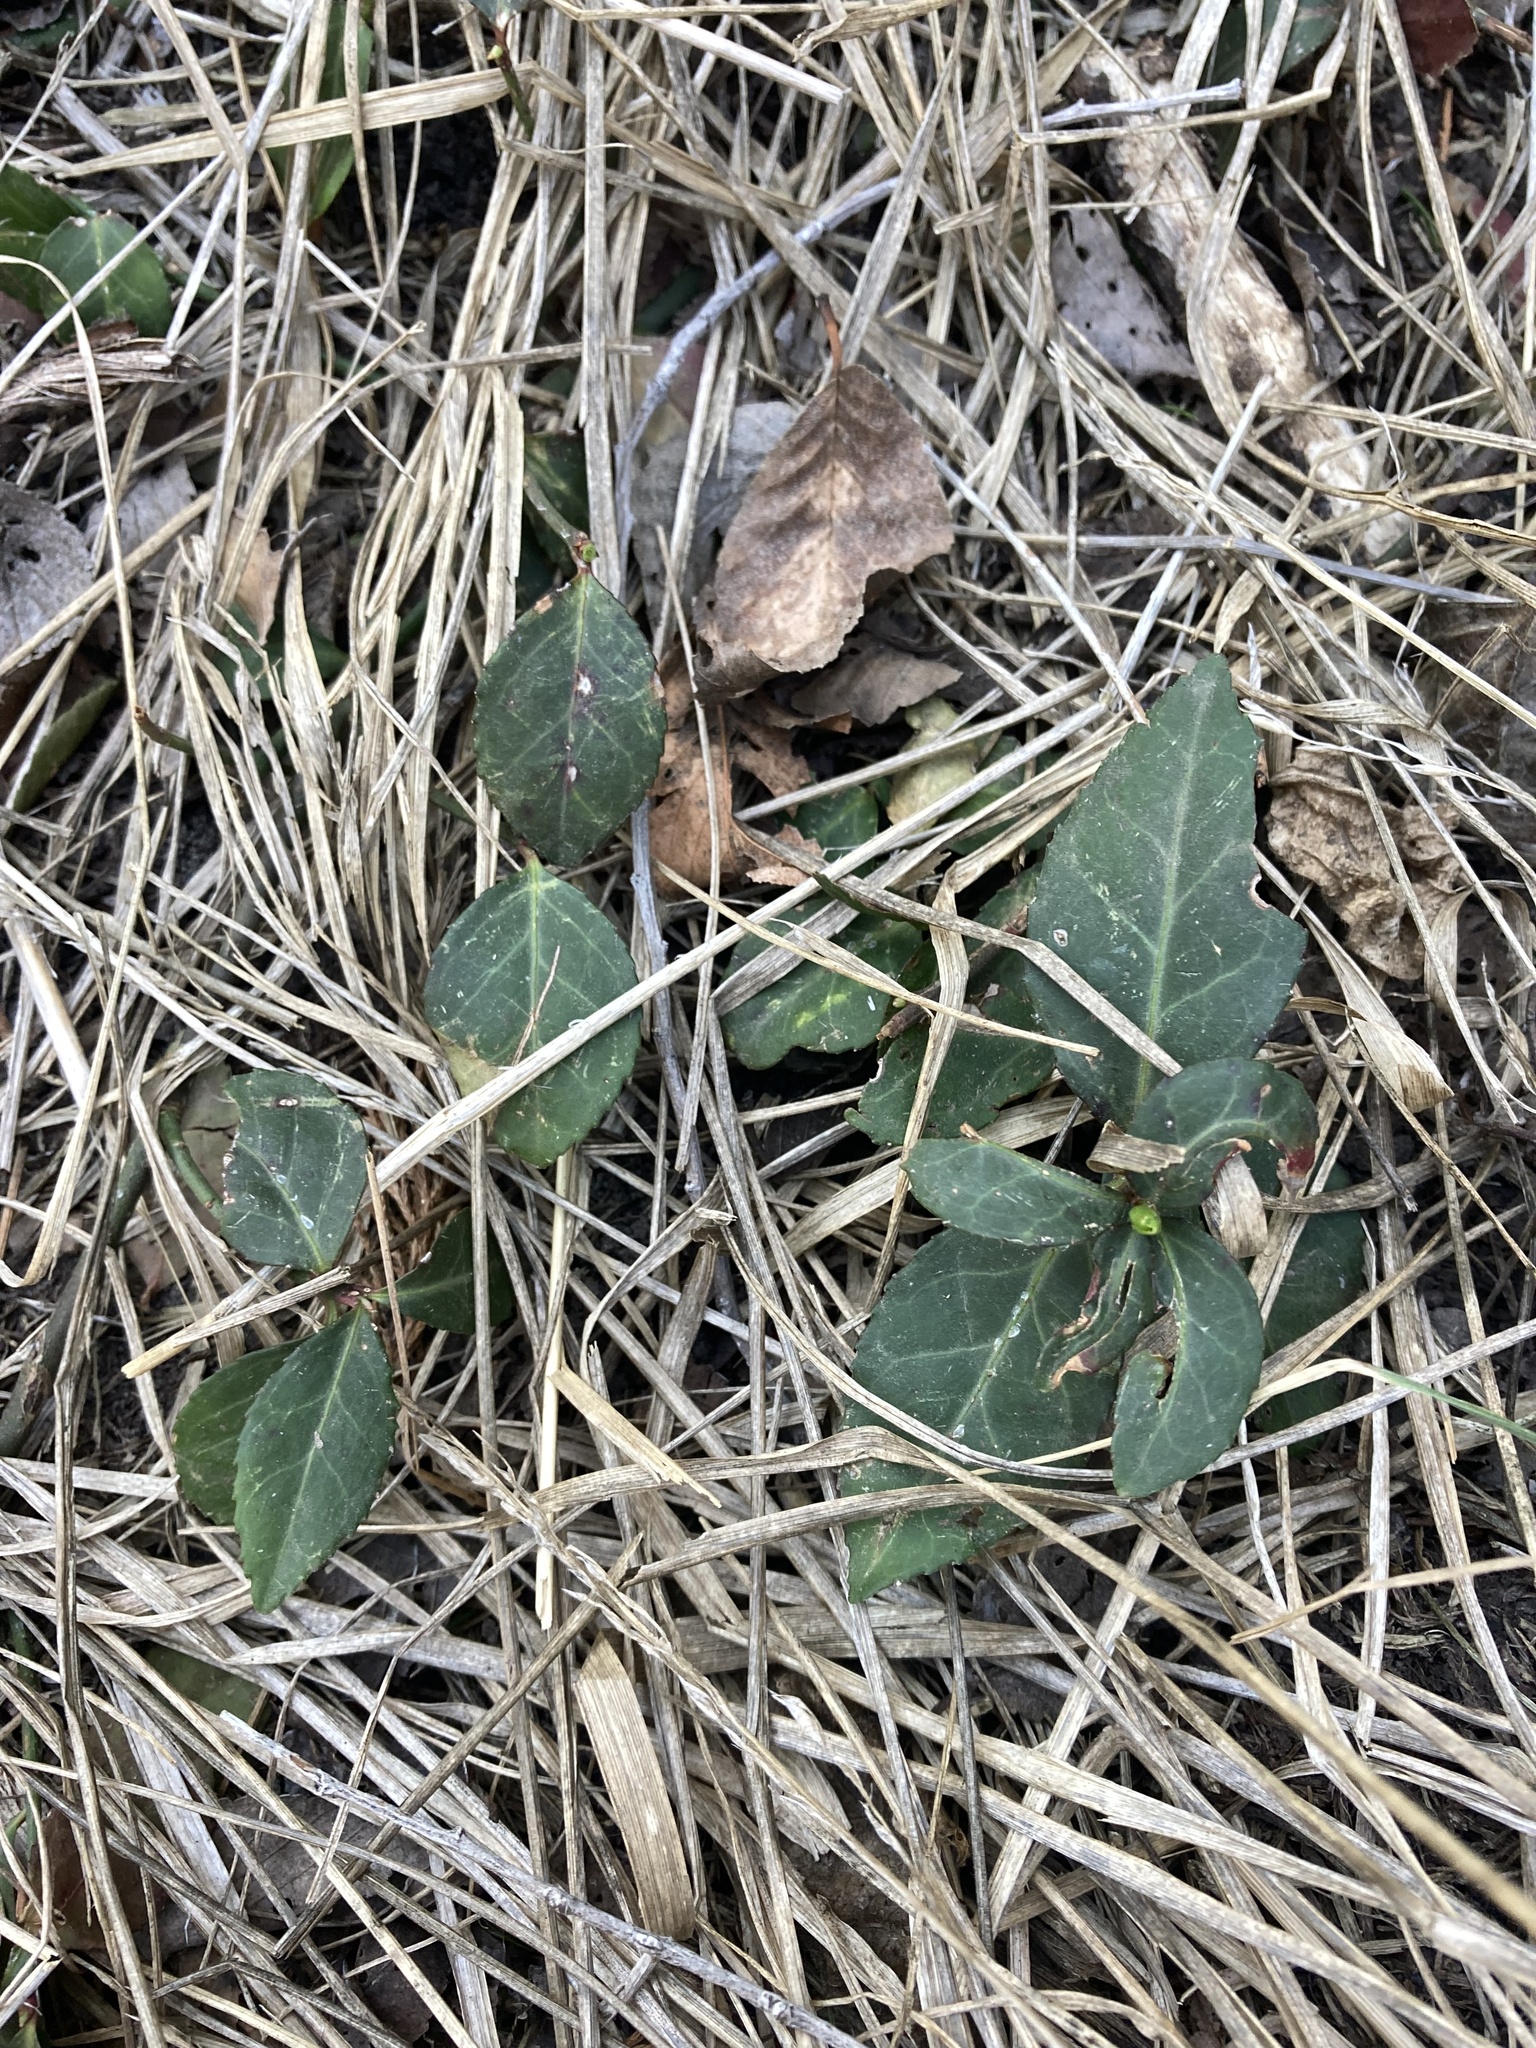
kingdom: Plantae
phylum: Tracheophyta
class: Magnoliopsida
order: Celastrales
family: Celastraceae
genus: Euonymus
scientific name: Euonymus fortunei
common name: Climbing euonymus
